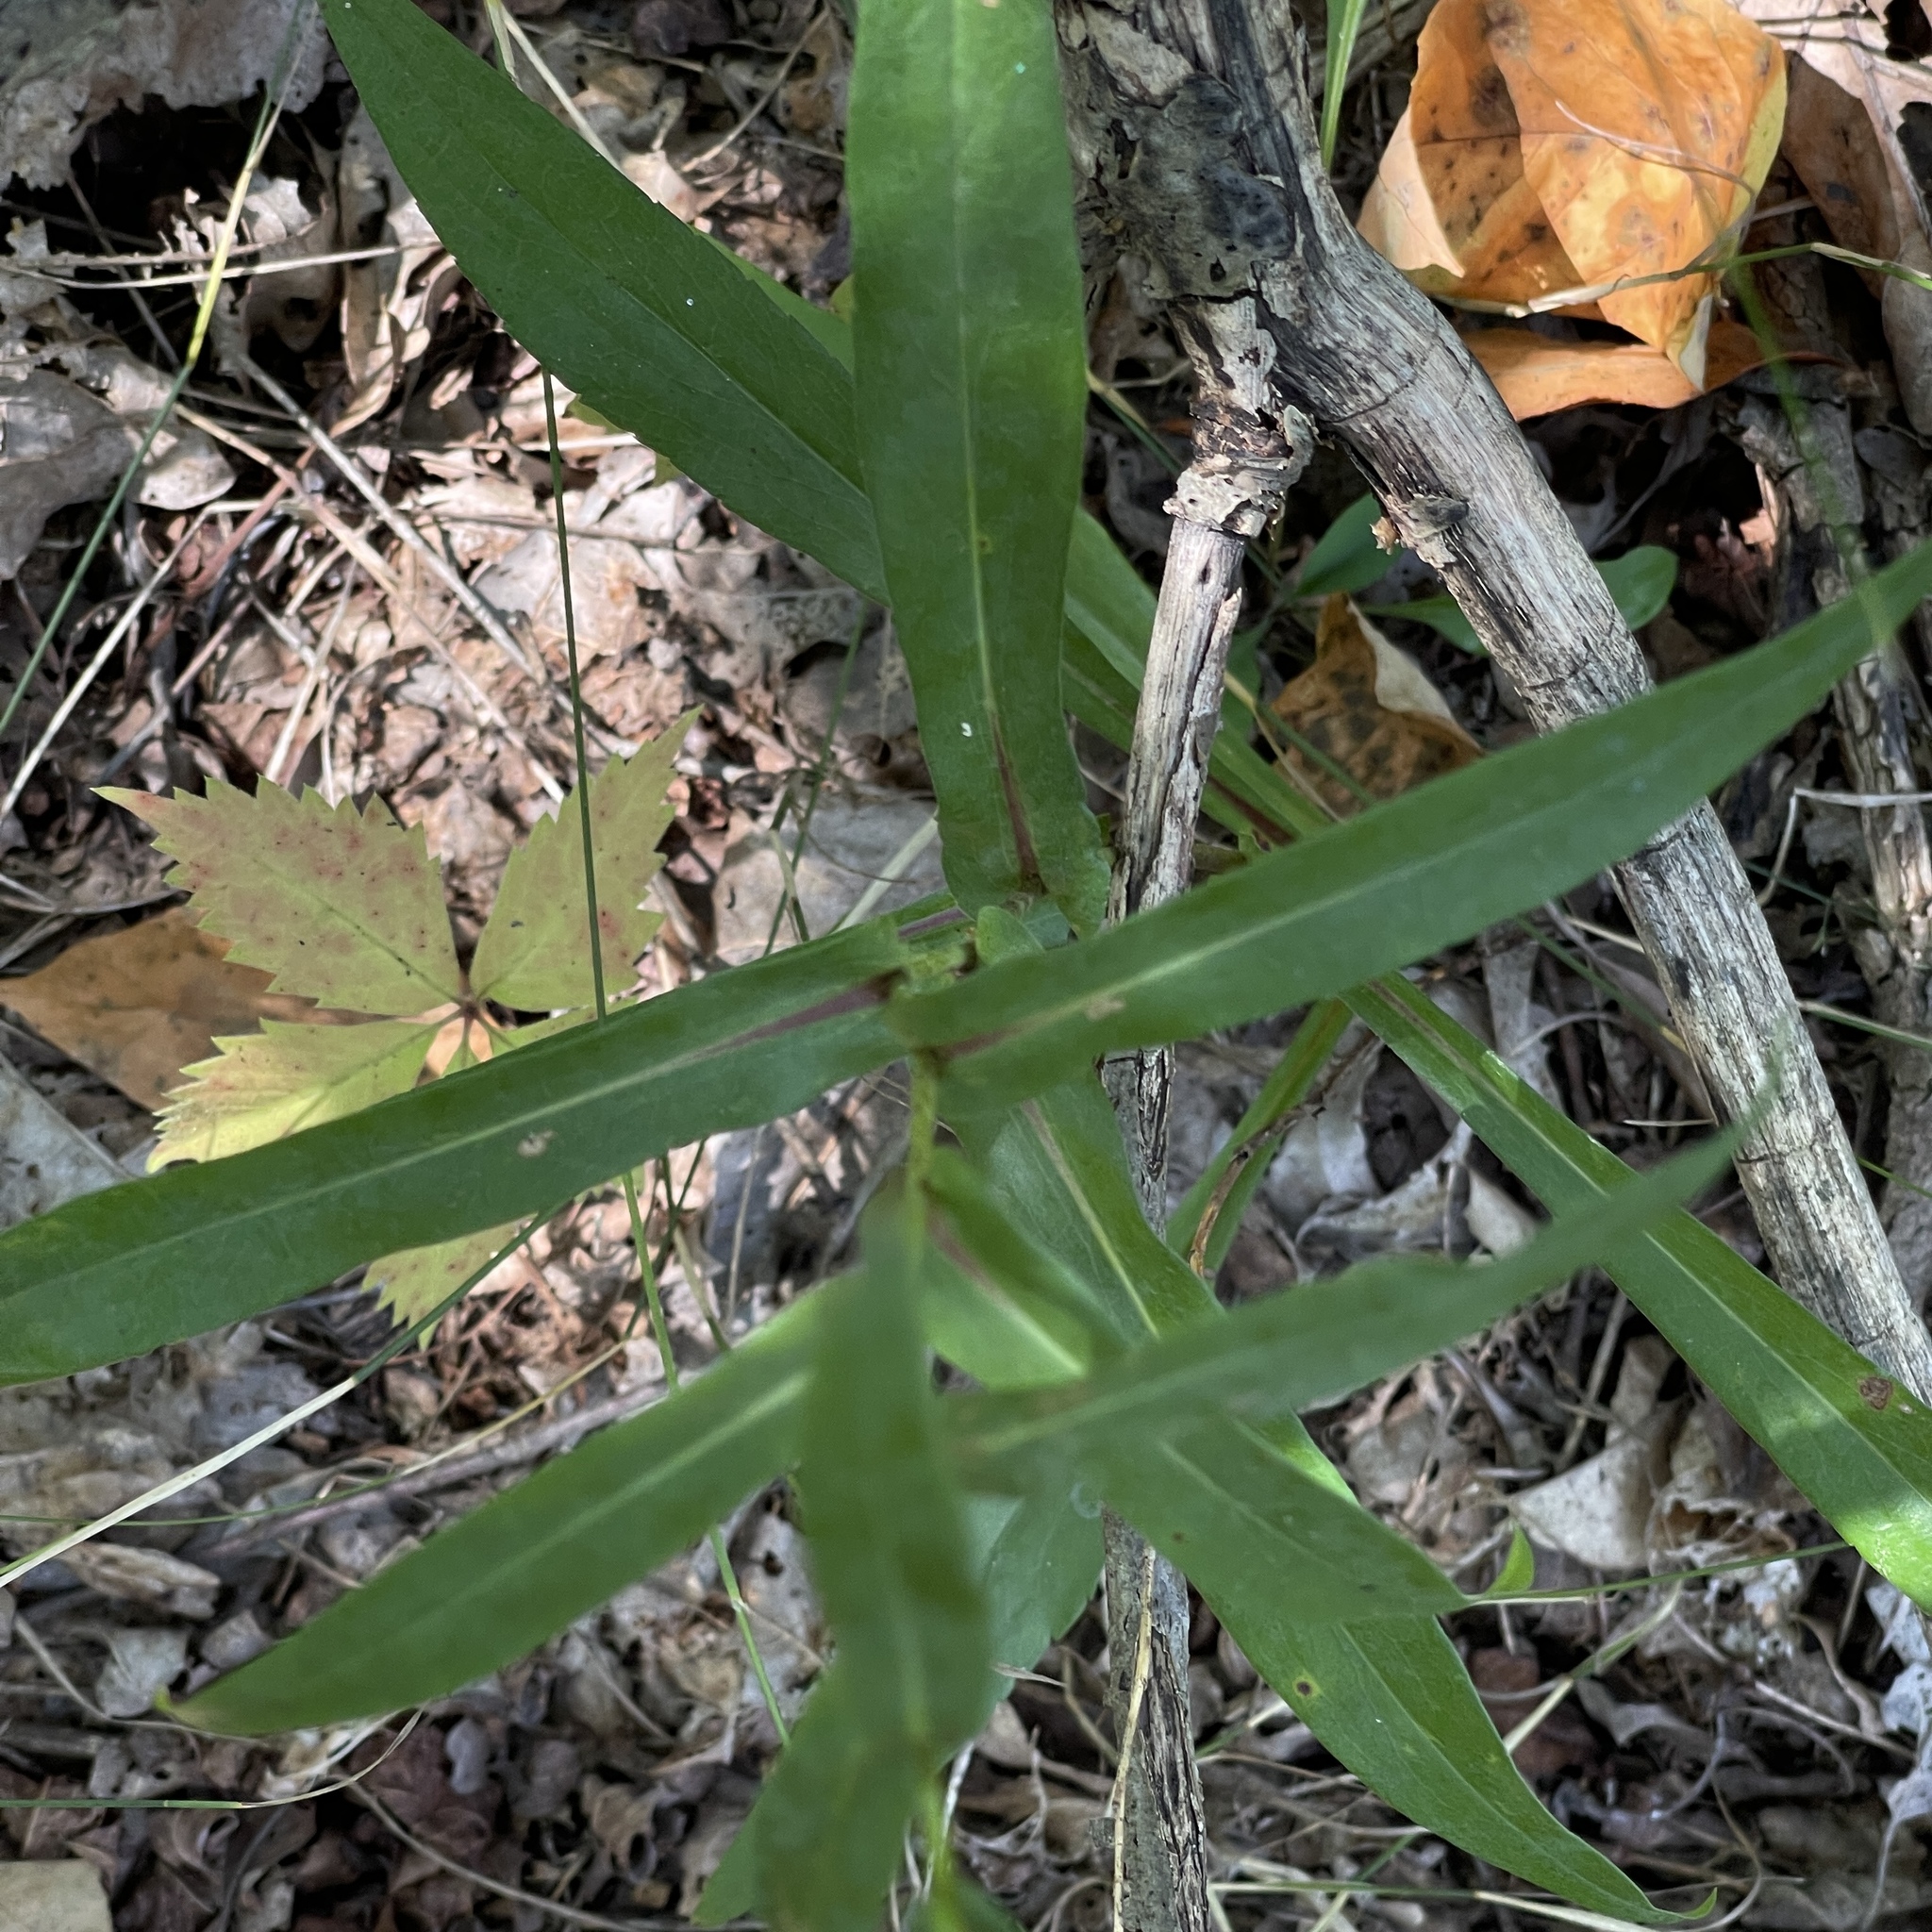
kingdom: Plantae
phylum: Tracheophyta
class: Magnoliopsida
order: Asterales
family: Asteraceae
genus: Symphyotrichum
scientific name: Symphyotrichum laeve
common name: Glaucous aster
